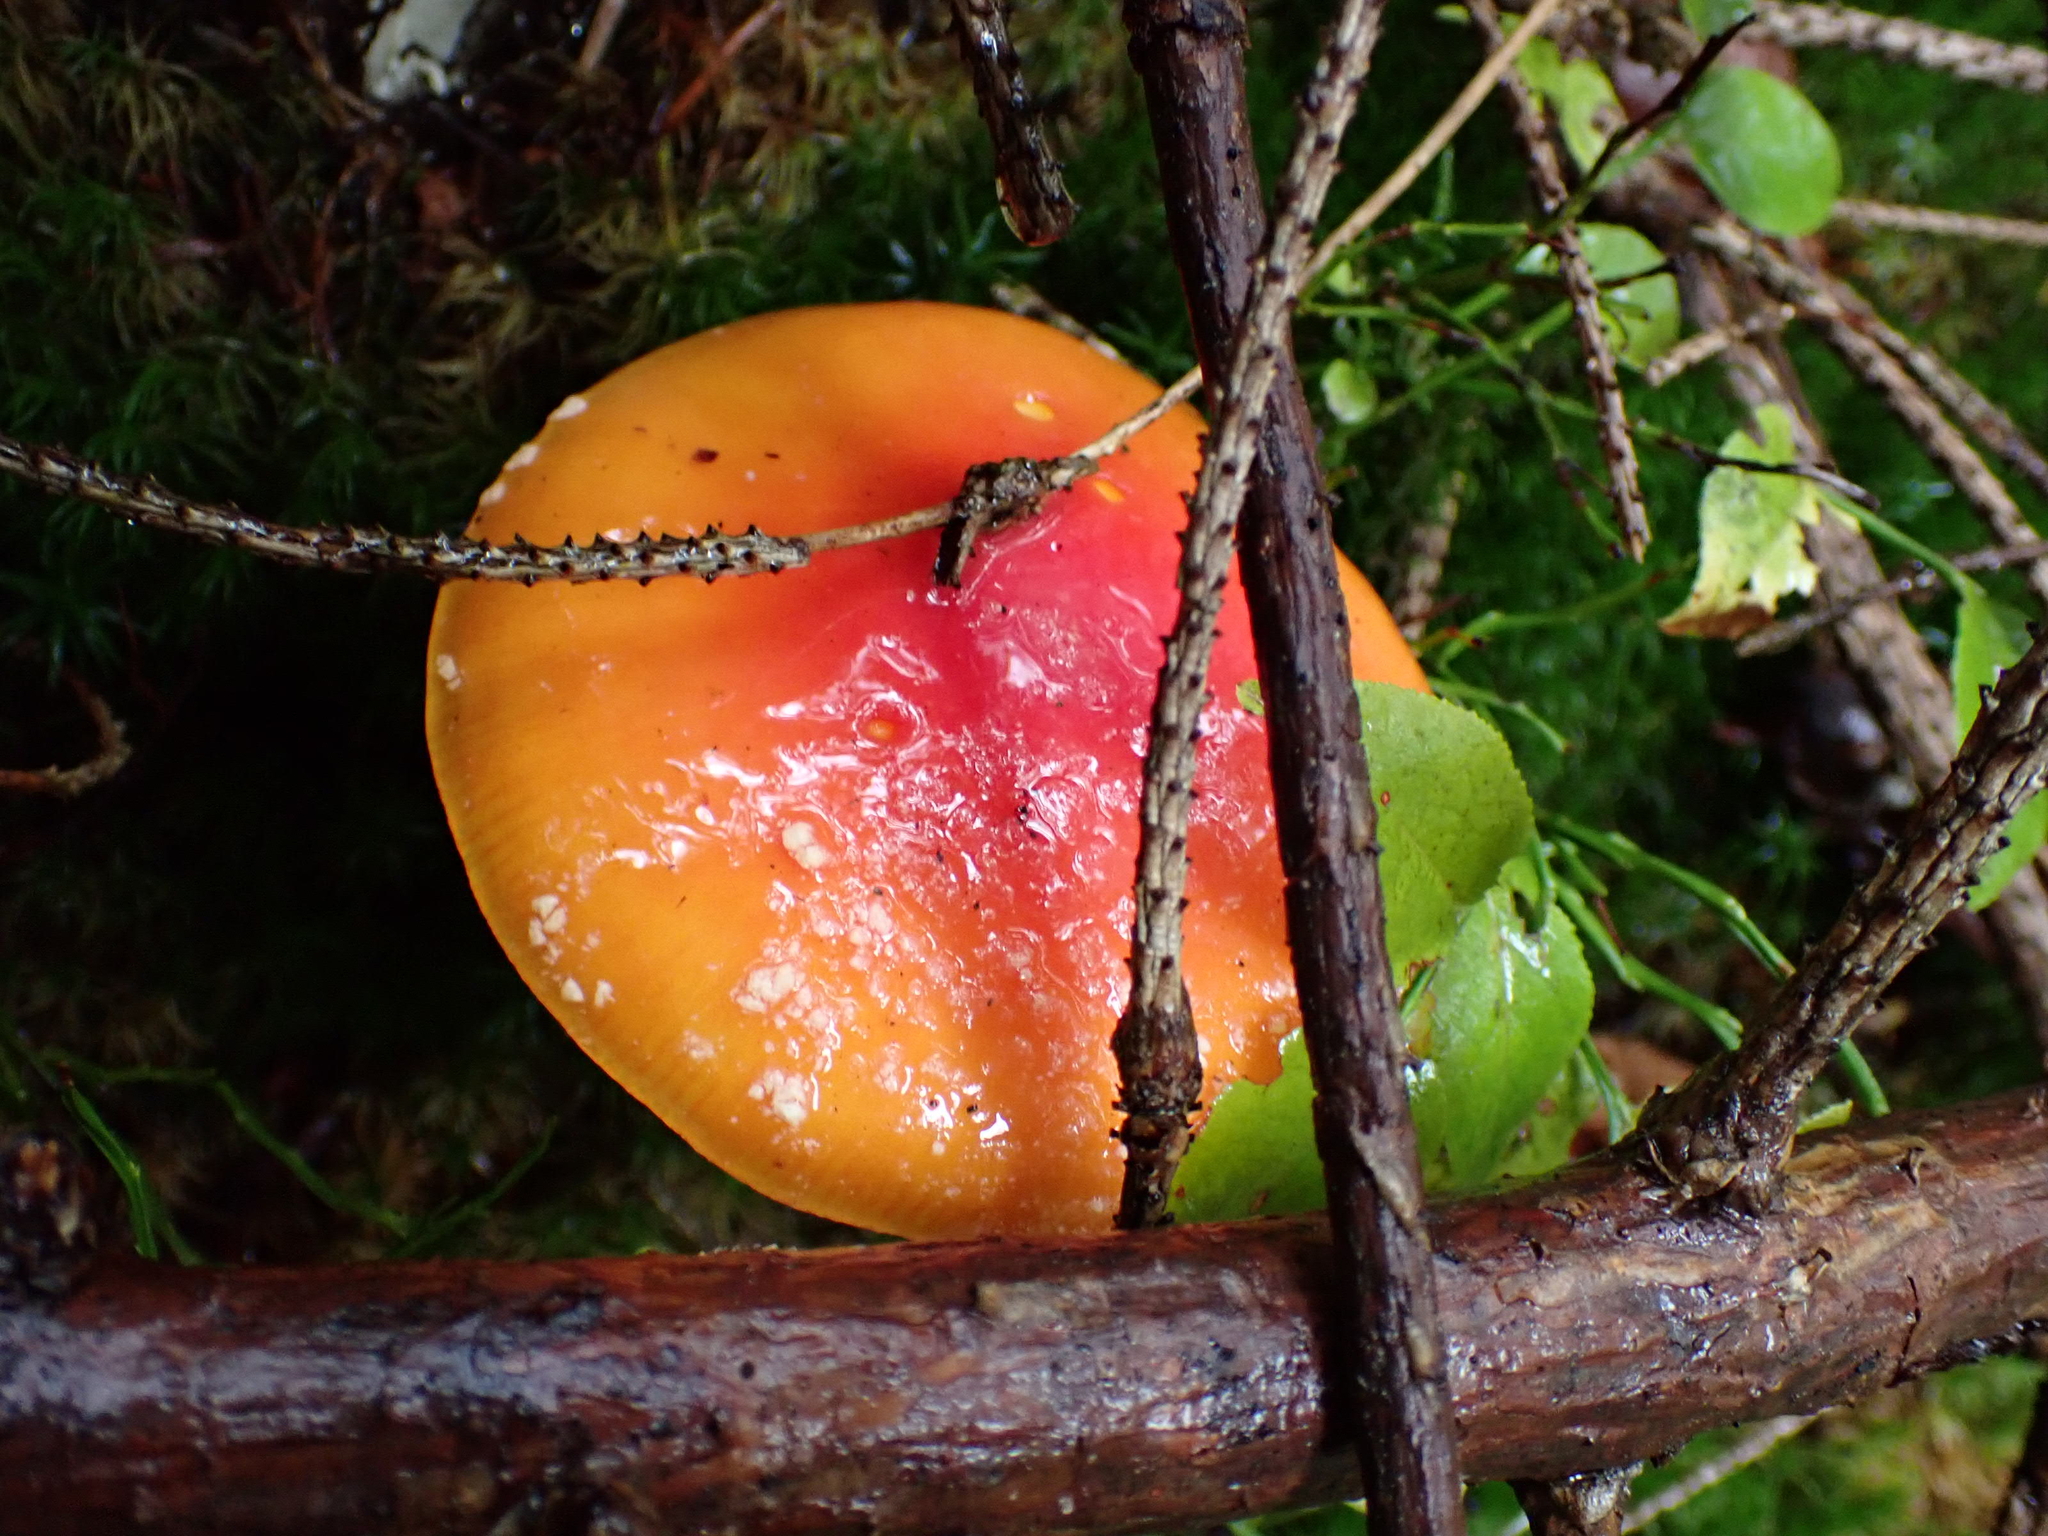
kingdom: Fungi
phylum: Basidiomycota
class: Agaricomycetes
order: Agaricales
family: Amanitaceae
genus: Amanita
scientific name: Amanita muscaria
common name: Fly agaric
